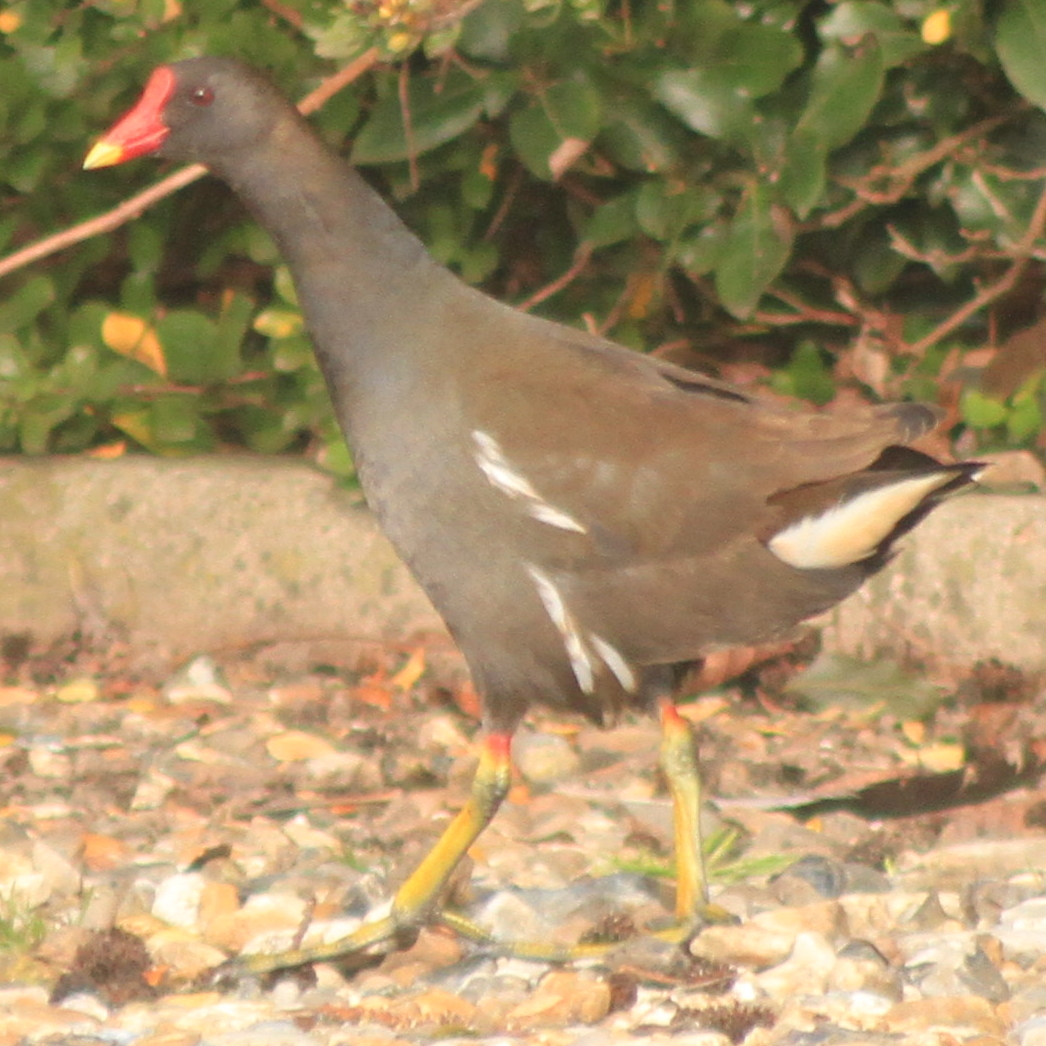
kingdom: Animalia
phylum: Chordata
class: Aves
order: Gruiformes
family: Rallidae
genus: Gallinula
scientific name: Gallinula chloropus
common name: Common moorhen
